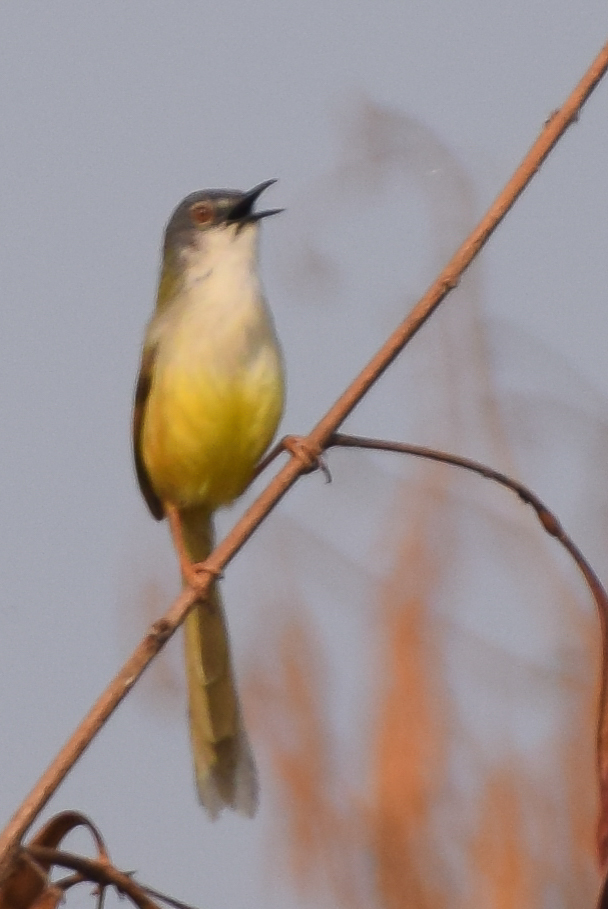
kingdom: Animalia
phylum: Chordata
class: Aves
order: Passeriformes
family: Cisticolidae
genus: Prinia
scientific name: Prinia flaviventris
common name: Yellow-bellied prinia
